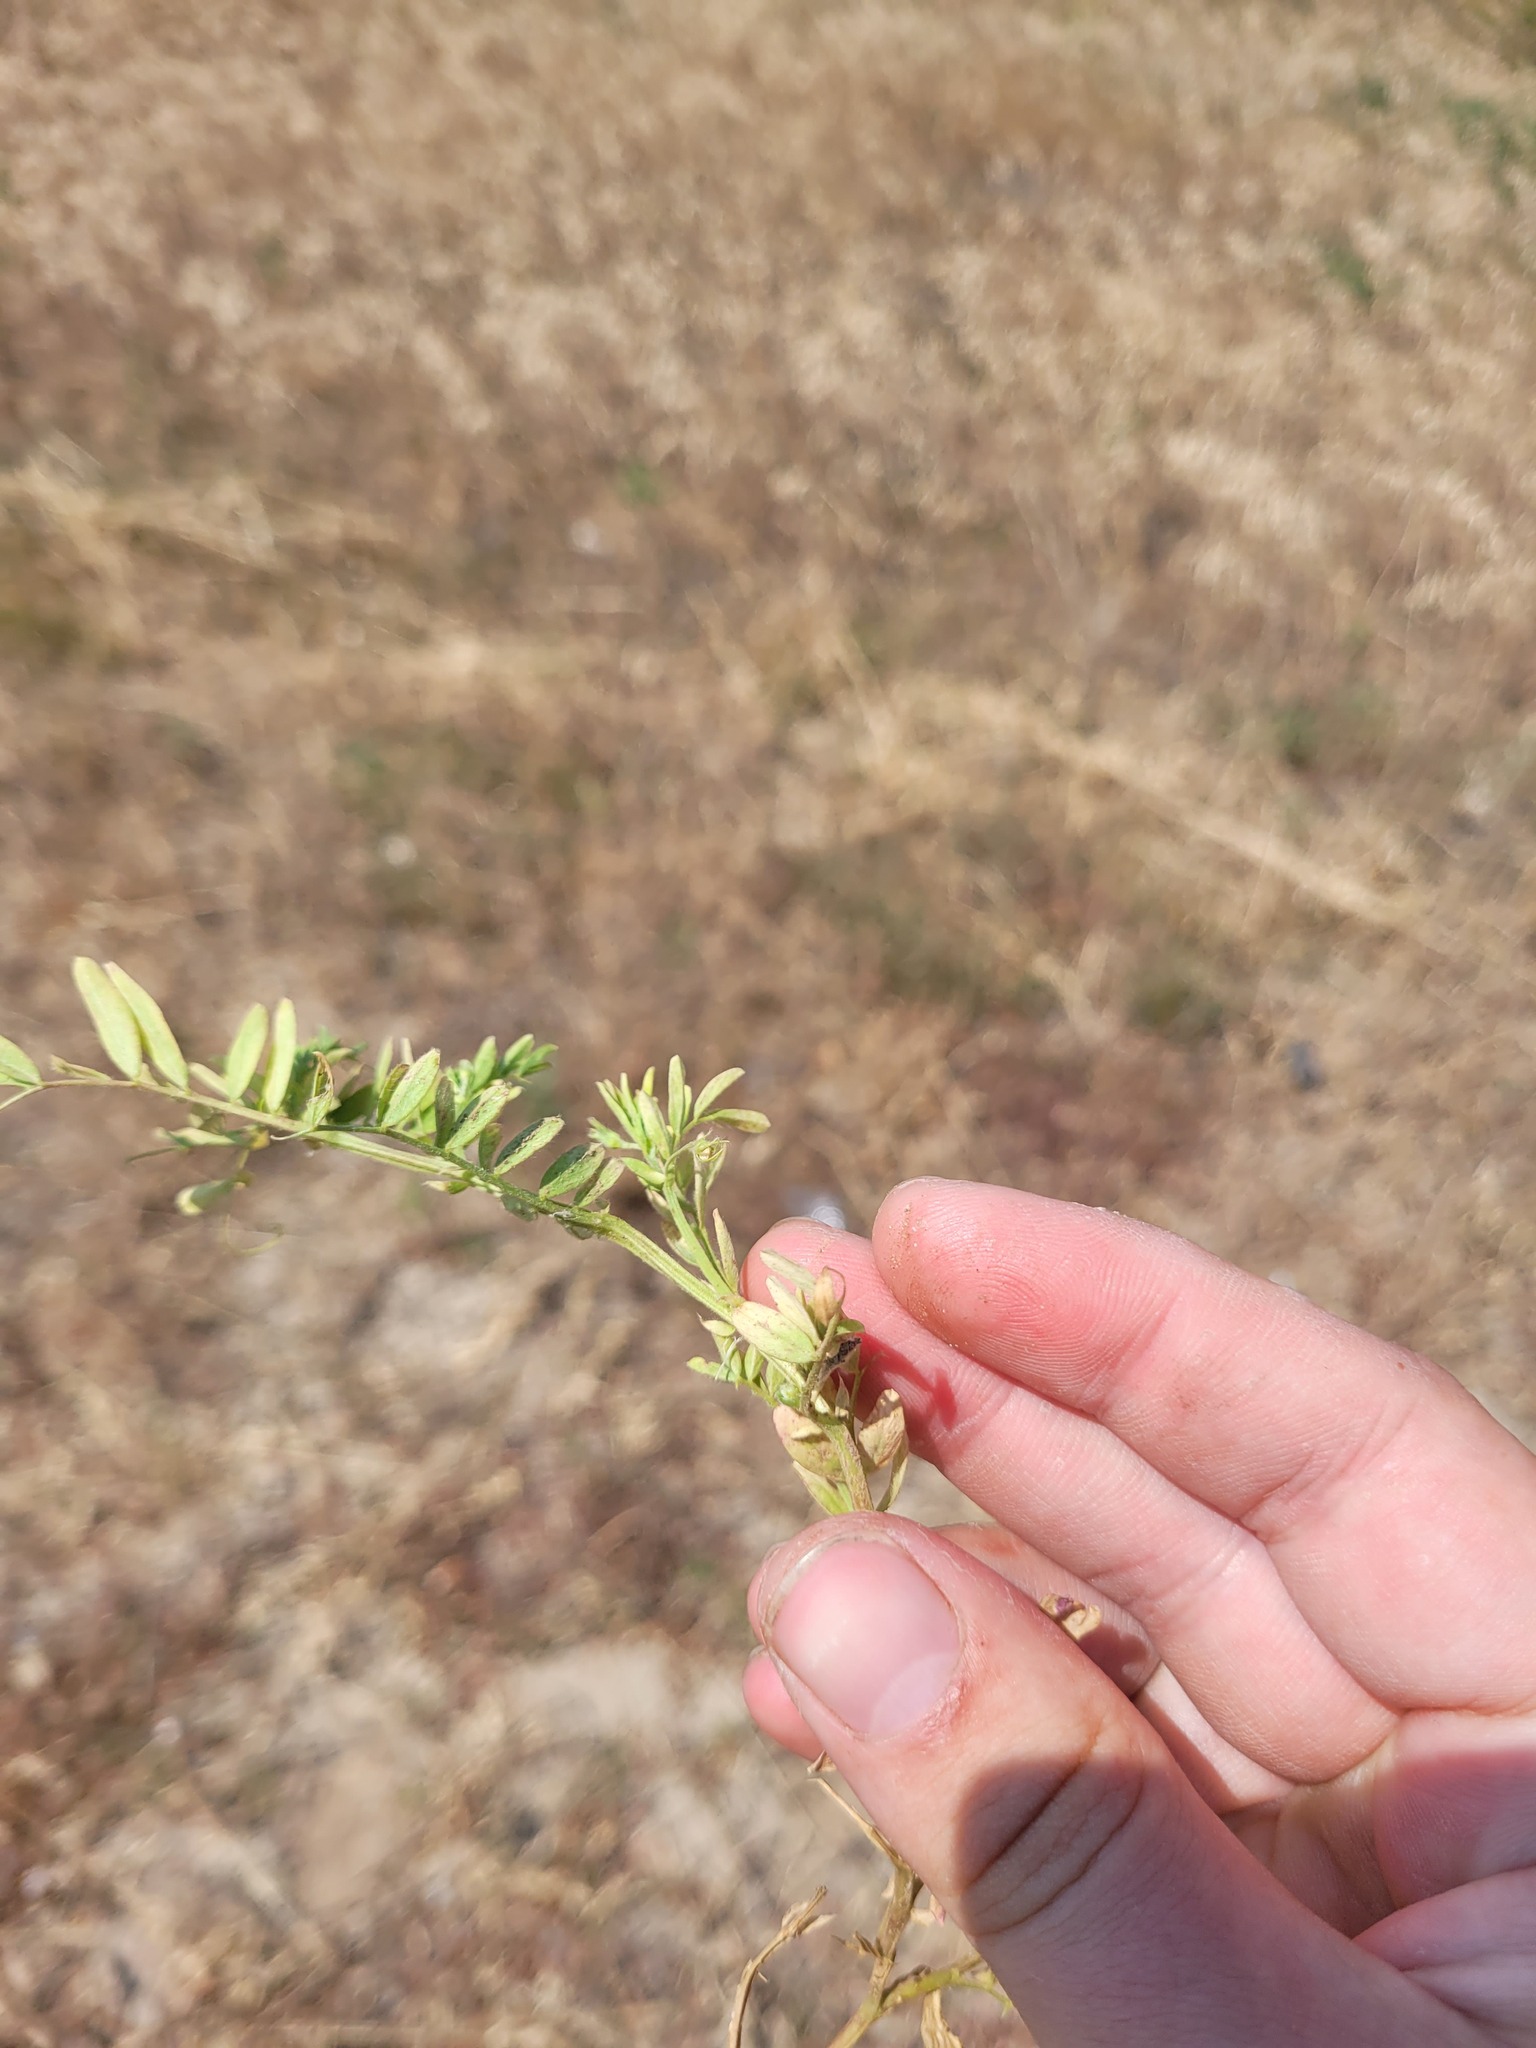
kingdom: Plantae
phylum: Tracheophyta
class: Magnoliopsida
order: Fabales
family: Fabaceae
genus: Vicia
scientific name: Vicia lens
